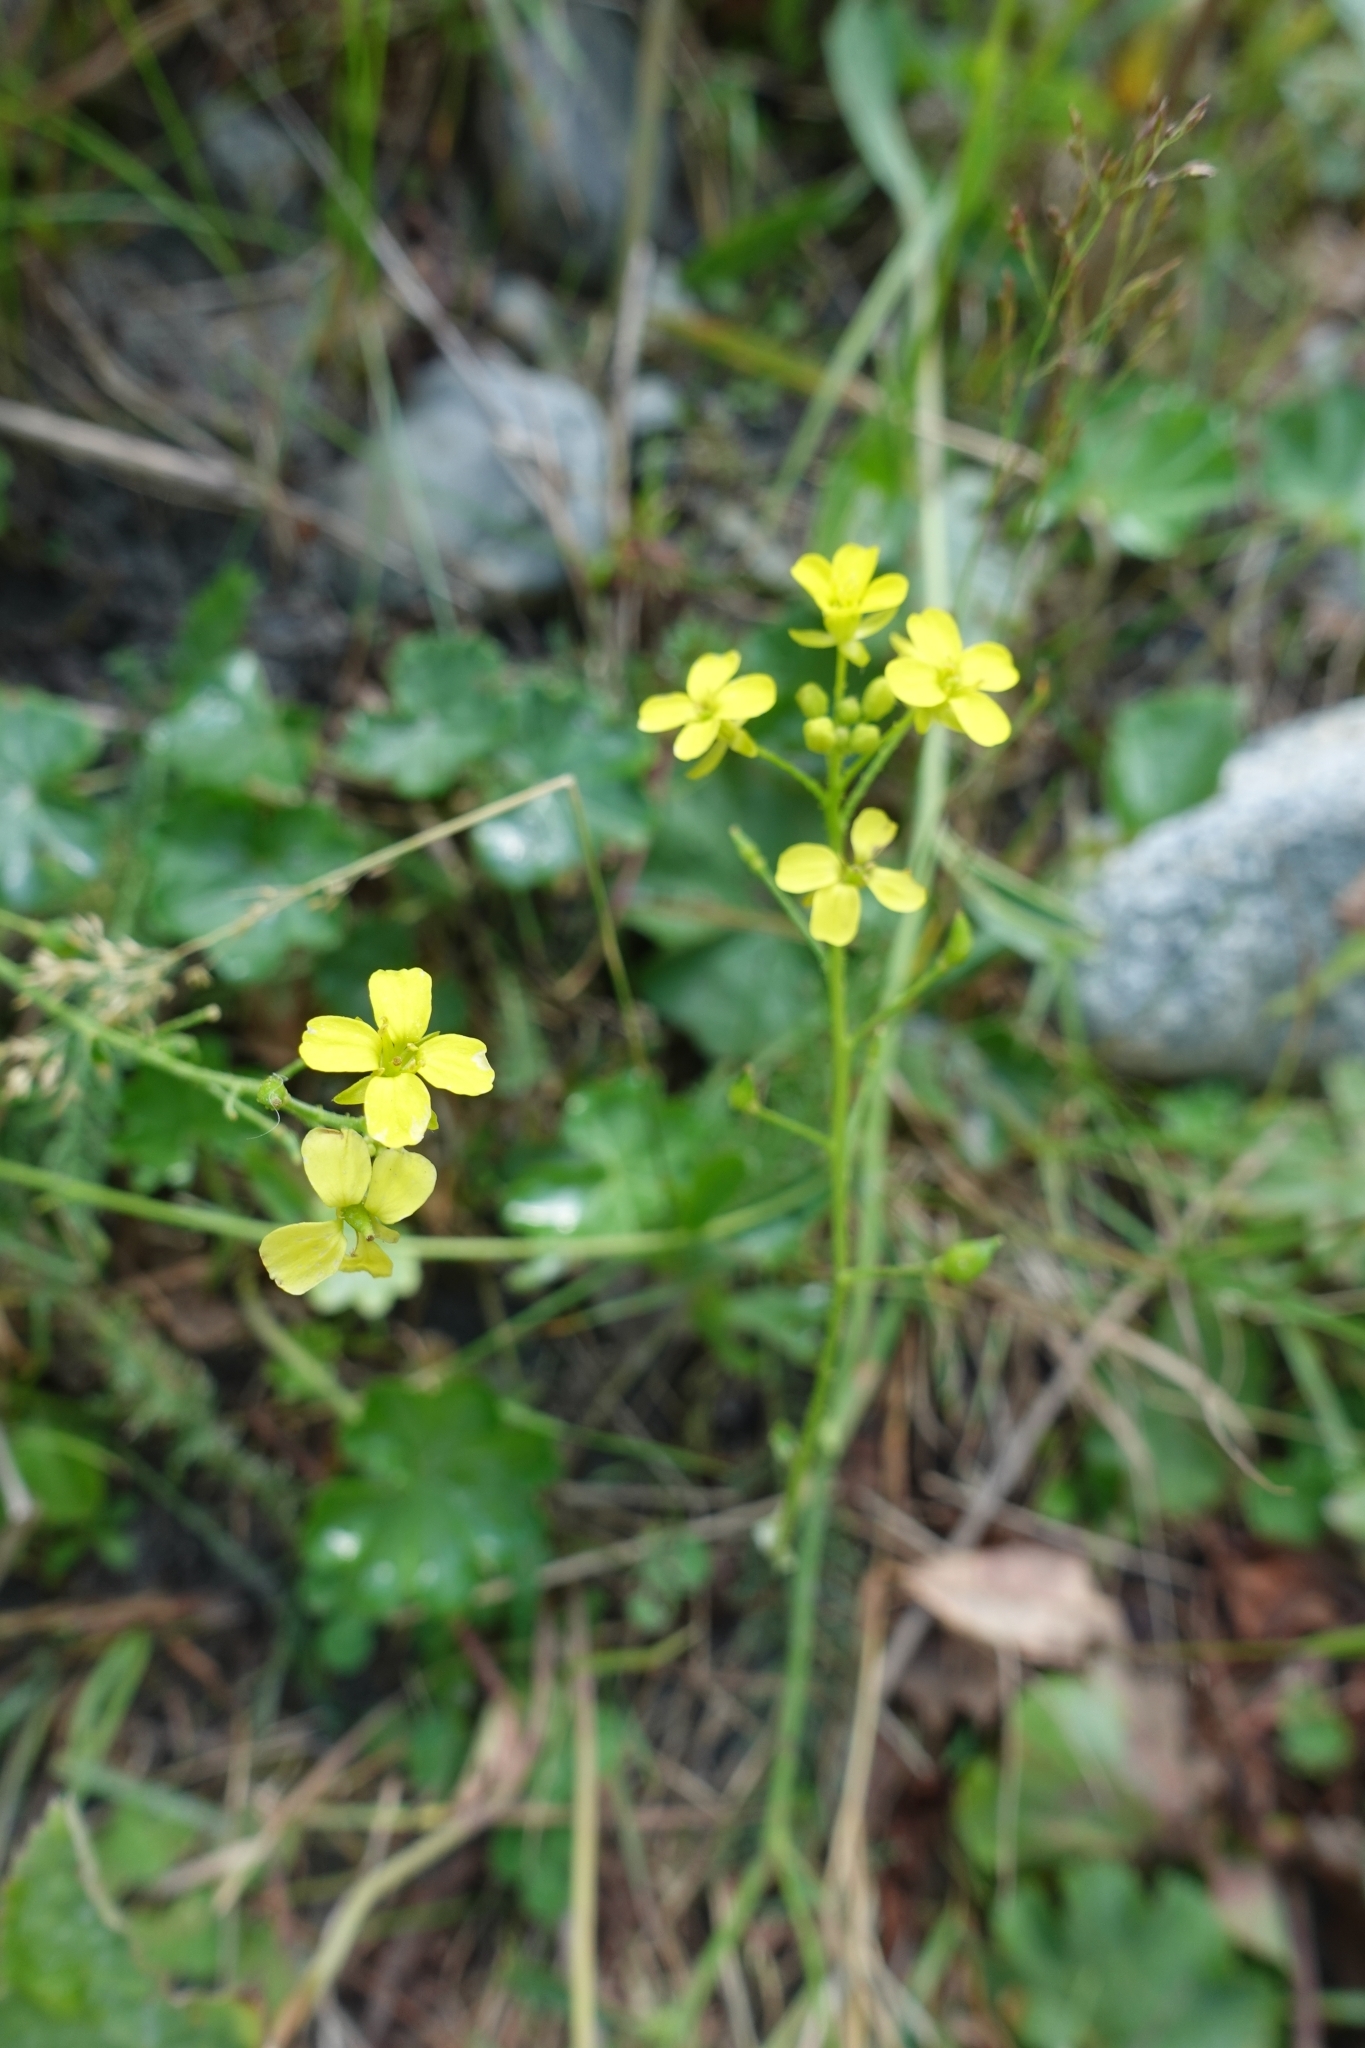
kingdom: Plantae
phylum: Tracheophyta
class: Magnoliopsida
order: Brassicales
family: Brassicaceae
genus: Bunias
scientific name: Bunias orientalis
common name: Warty-cabbage
